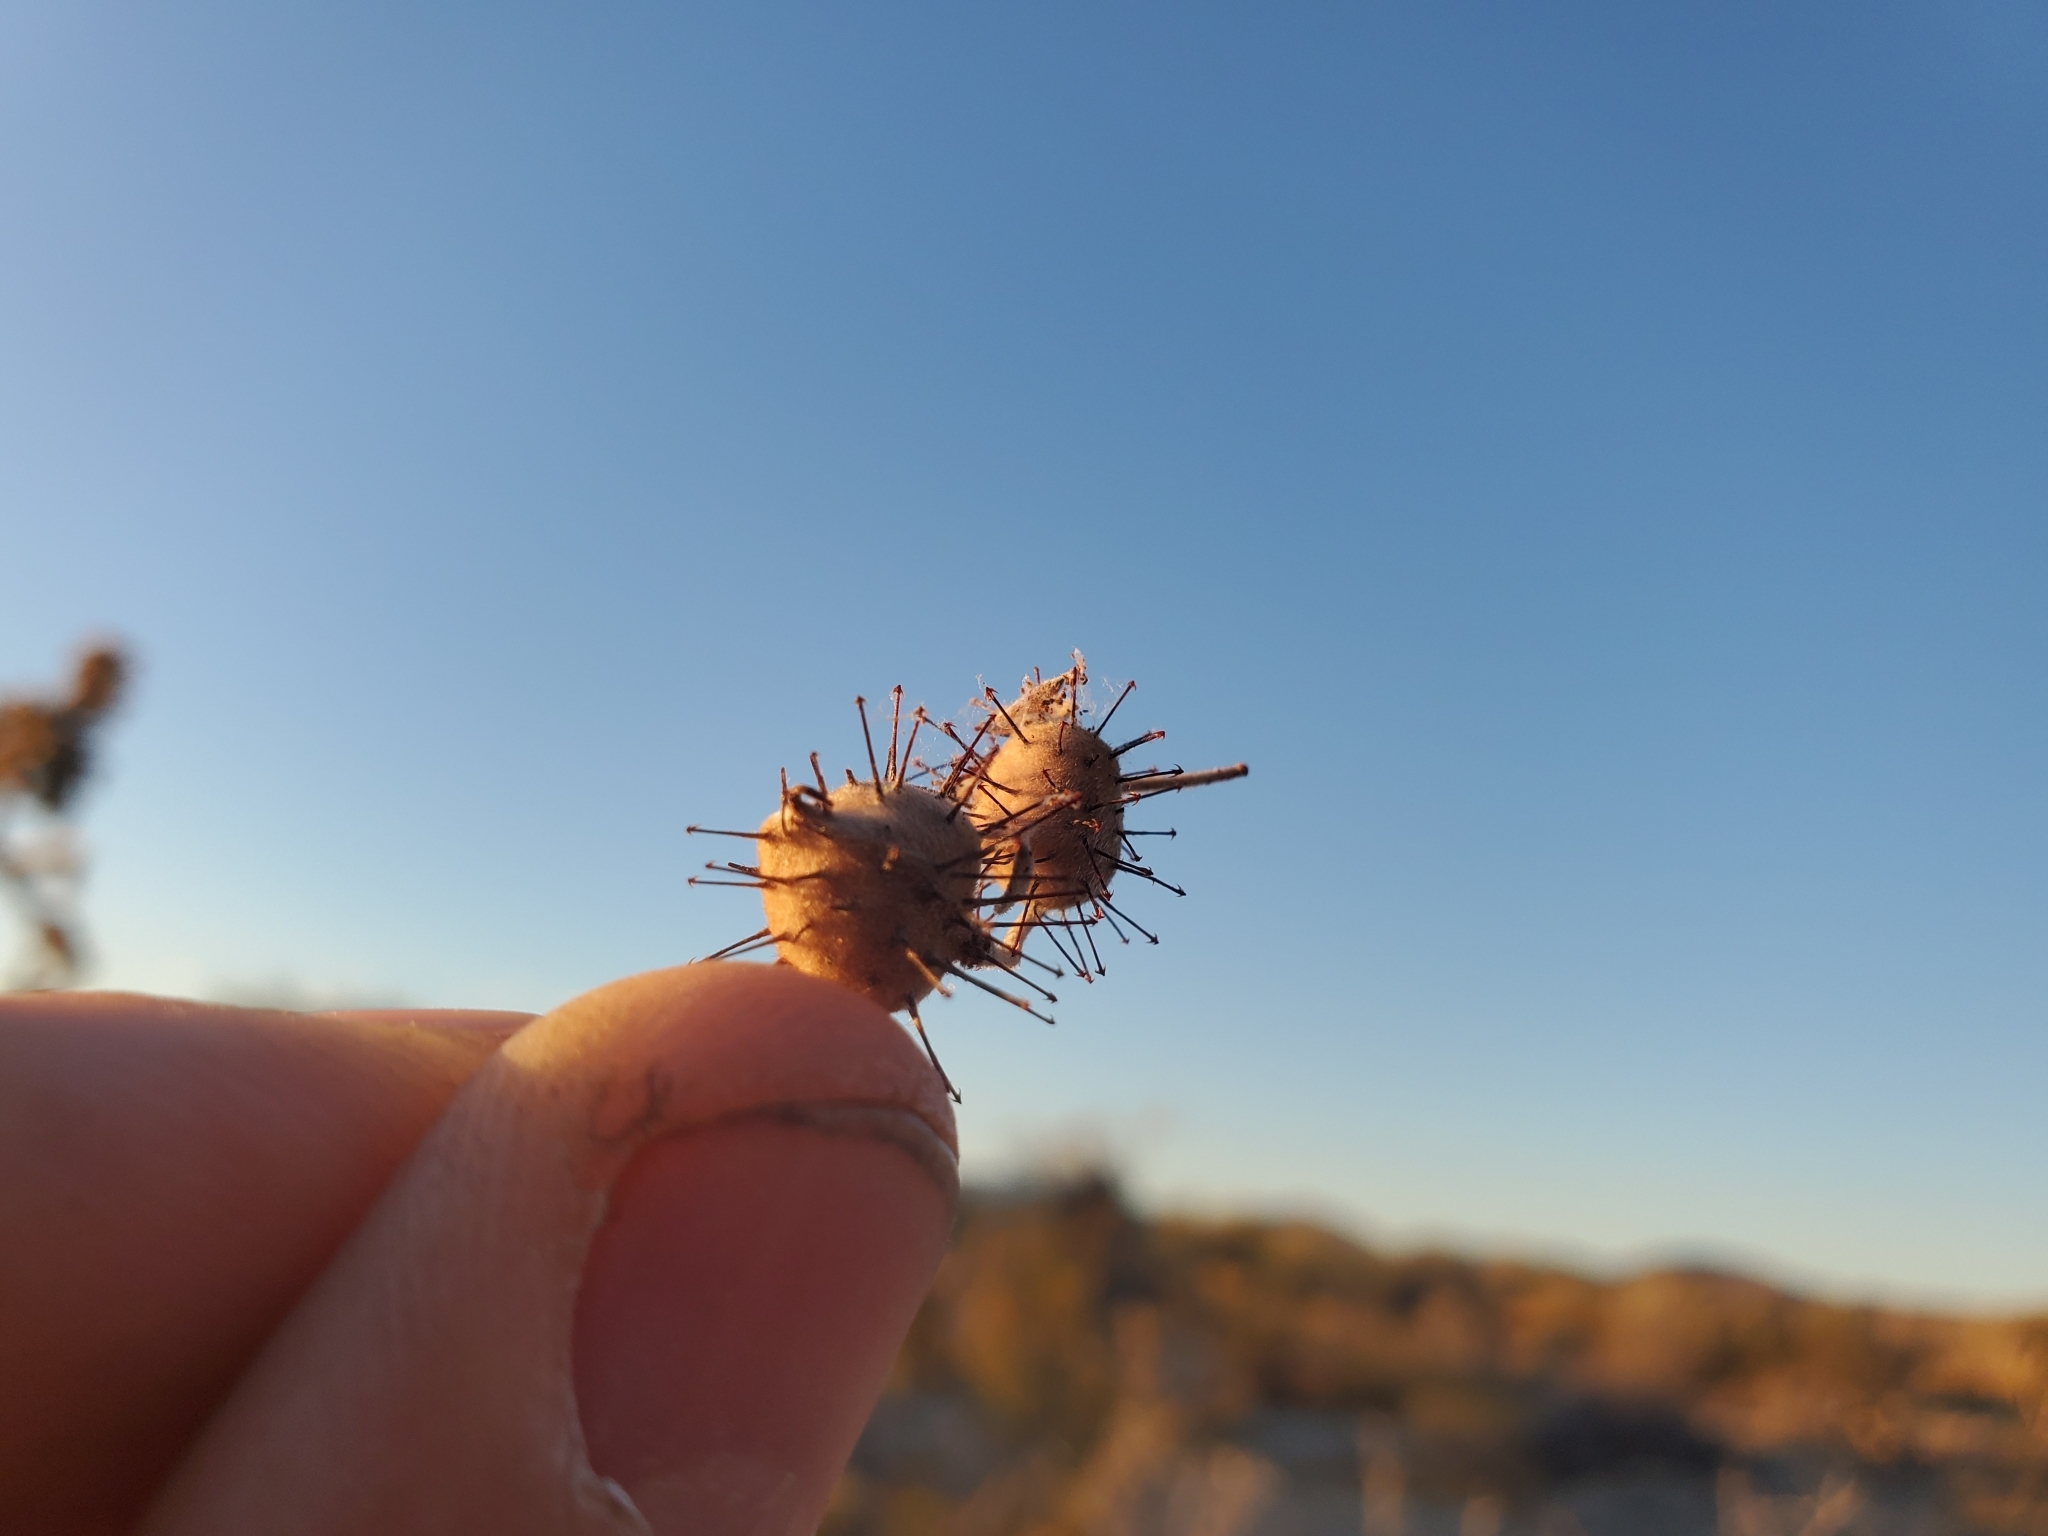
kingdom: Plantae
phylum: Tracheophyta
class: Magnoliopsida
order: Zygophyllales
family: Krameriaceae
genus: Krameria
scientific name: Krameria bicolor
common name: White ratany
